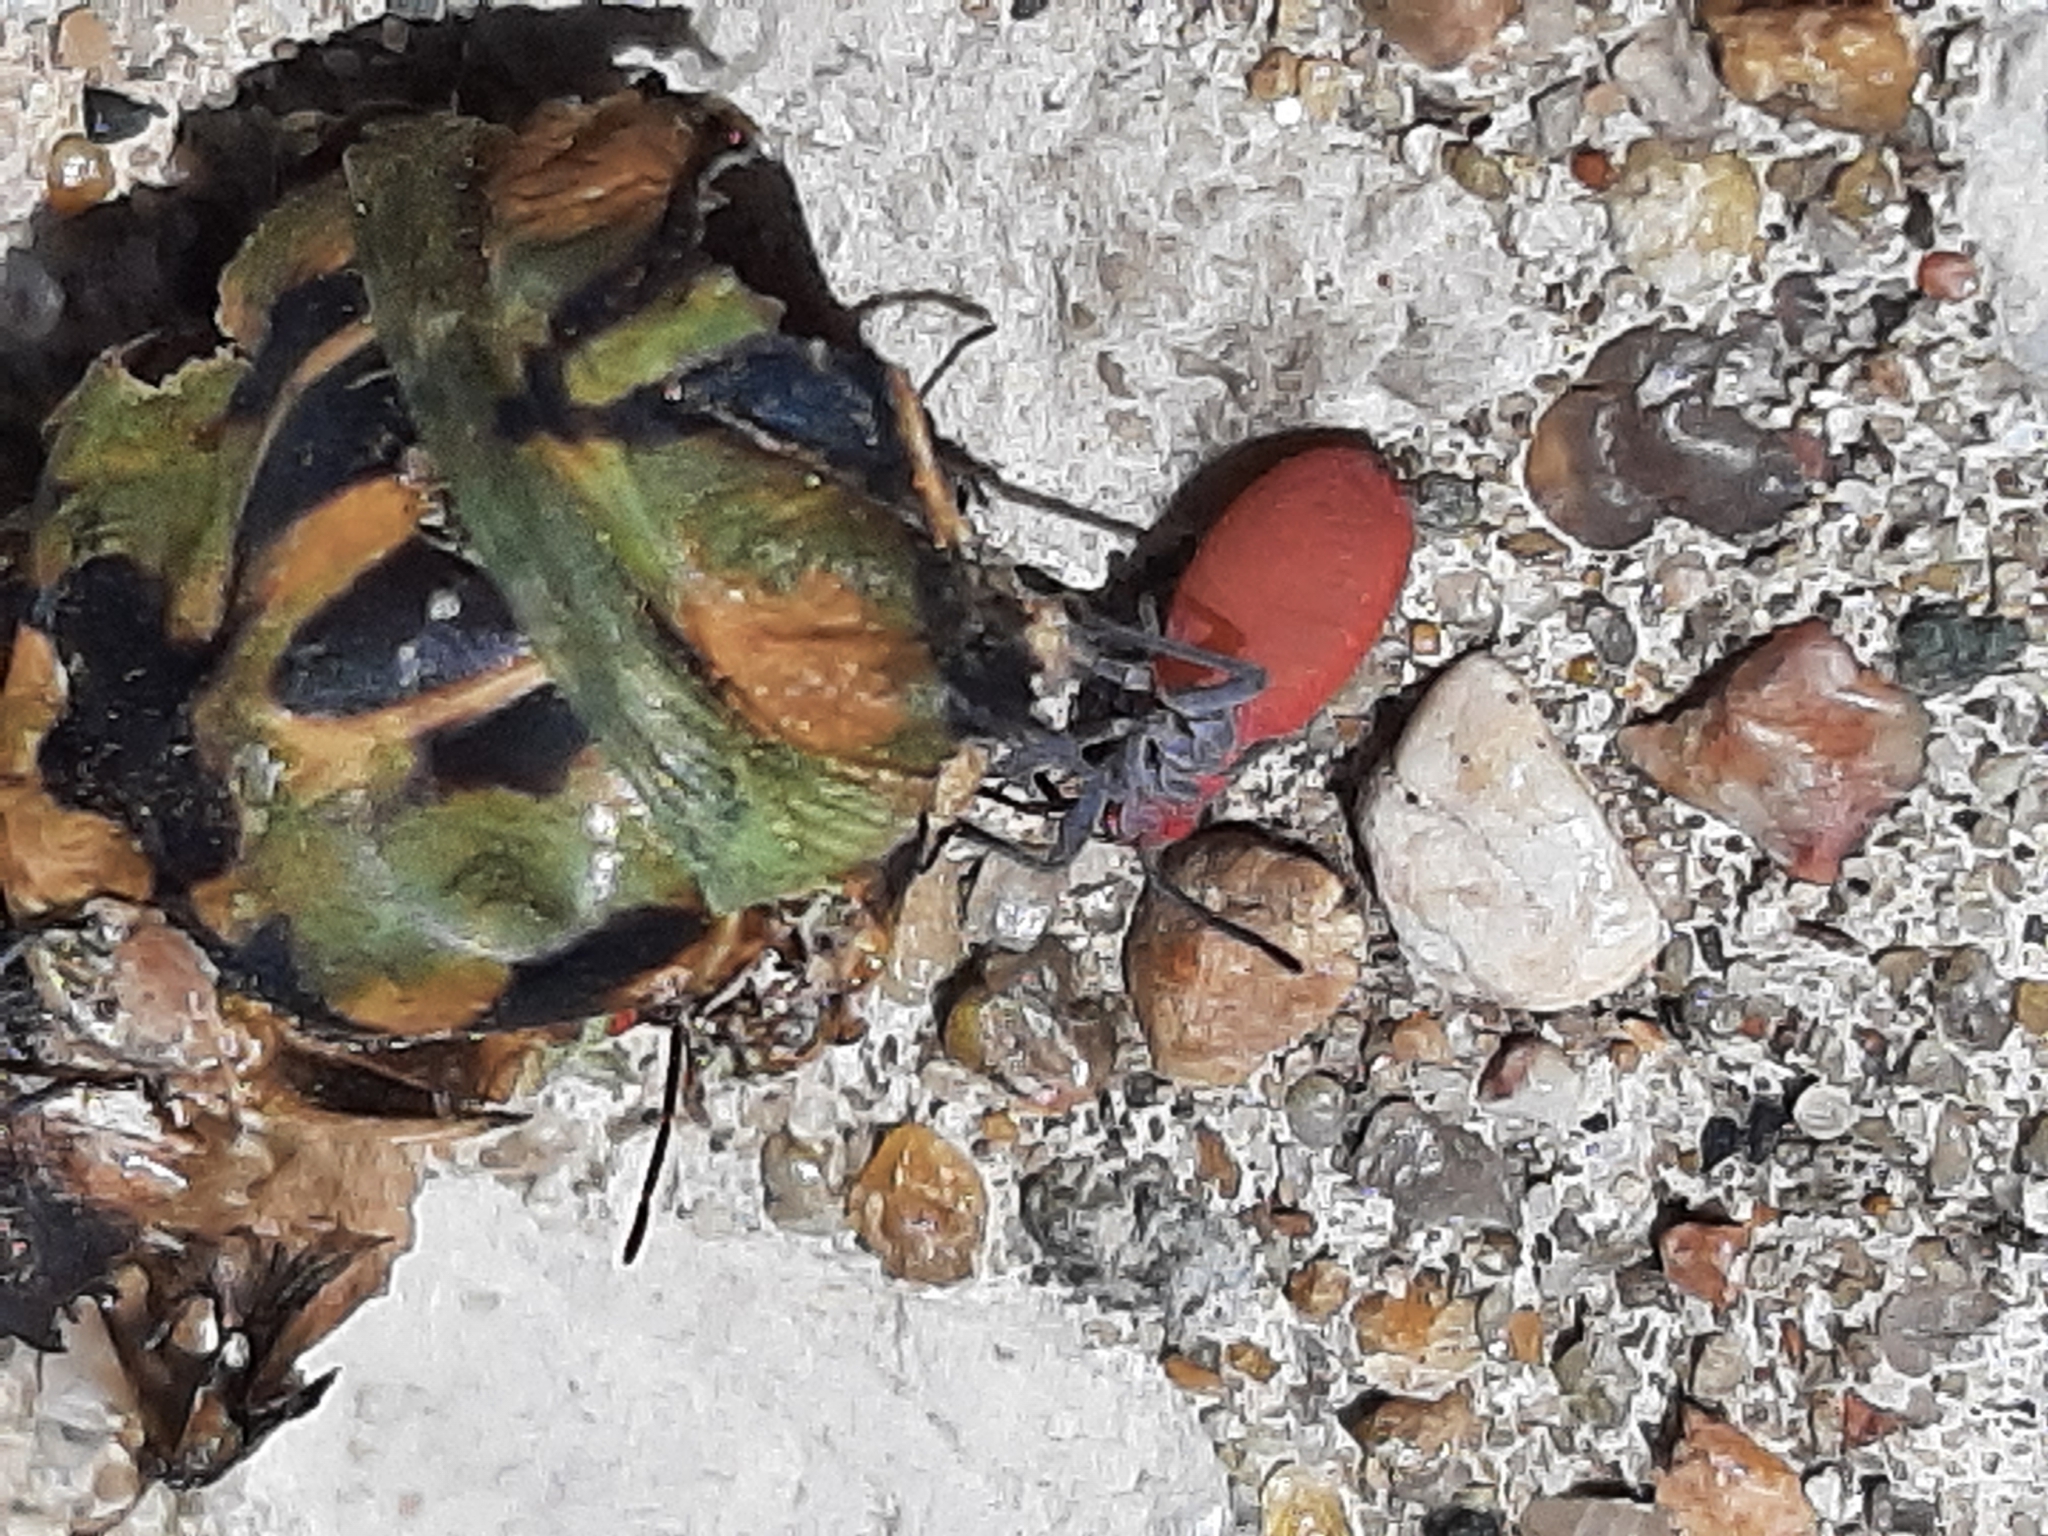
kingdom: Animalia
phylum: Arthropoda
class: Insecta
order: Hemiptera
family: Rhopalidae
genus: Jadera
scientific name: Jadera haematoloma
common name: Red-shouldered bug
